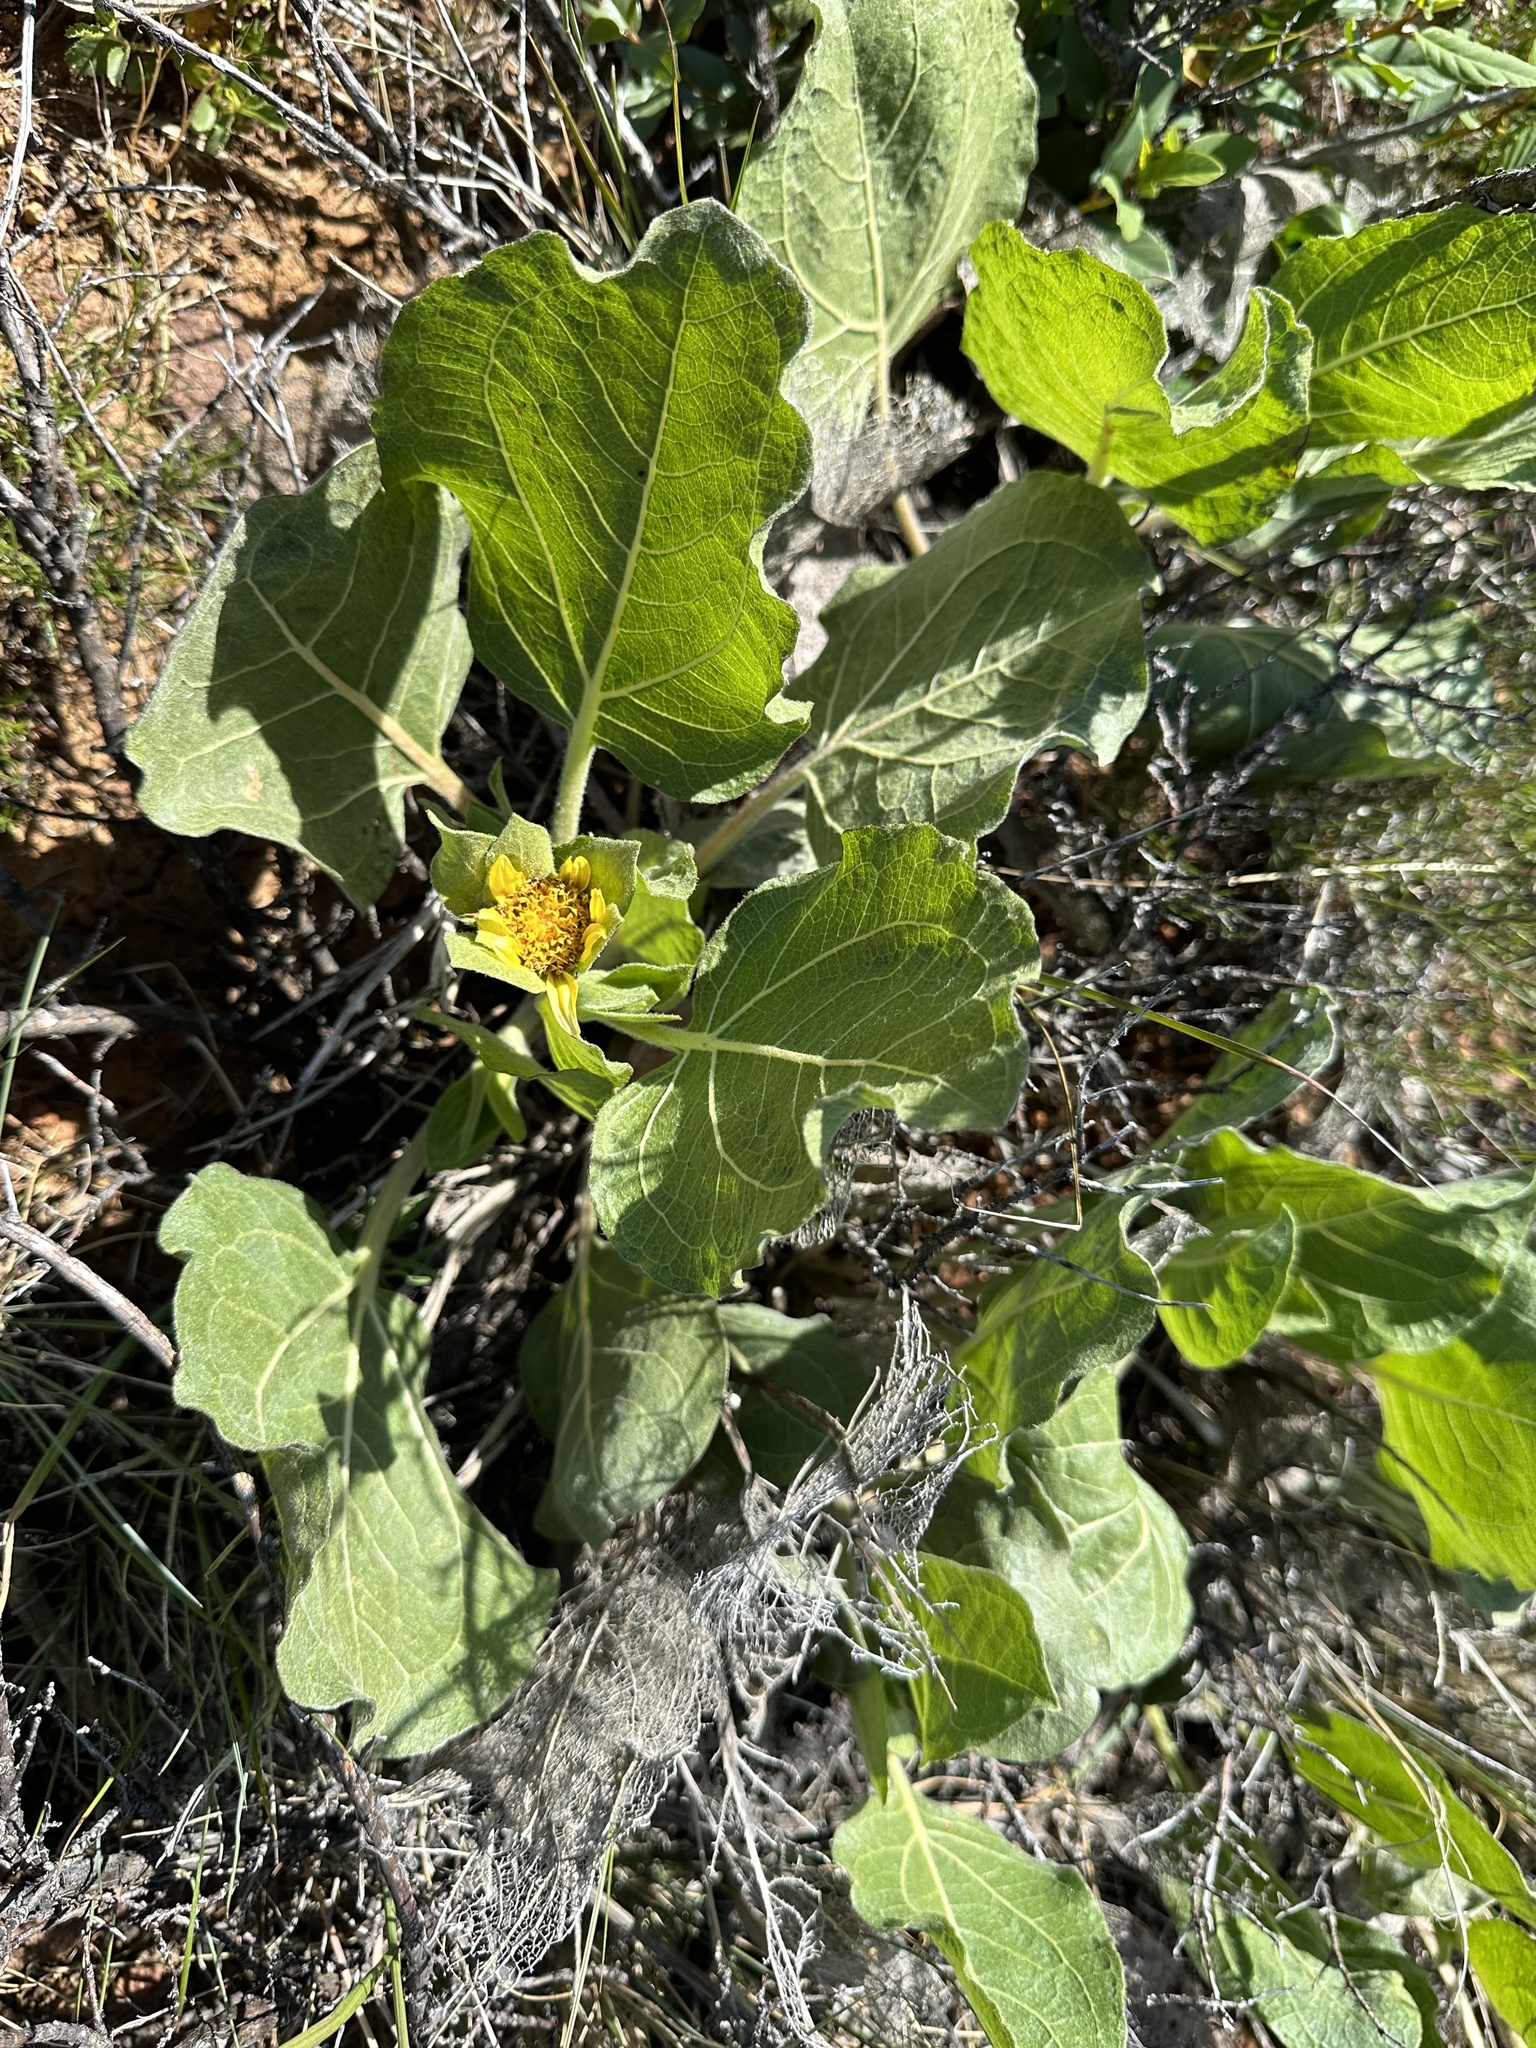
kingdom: Plantae
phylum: Tracheophyta
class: Magnoliopsida
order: Asterales
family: Asteraceae
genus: Agnorhiza
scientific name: Agnorhiza ovata
